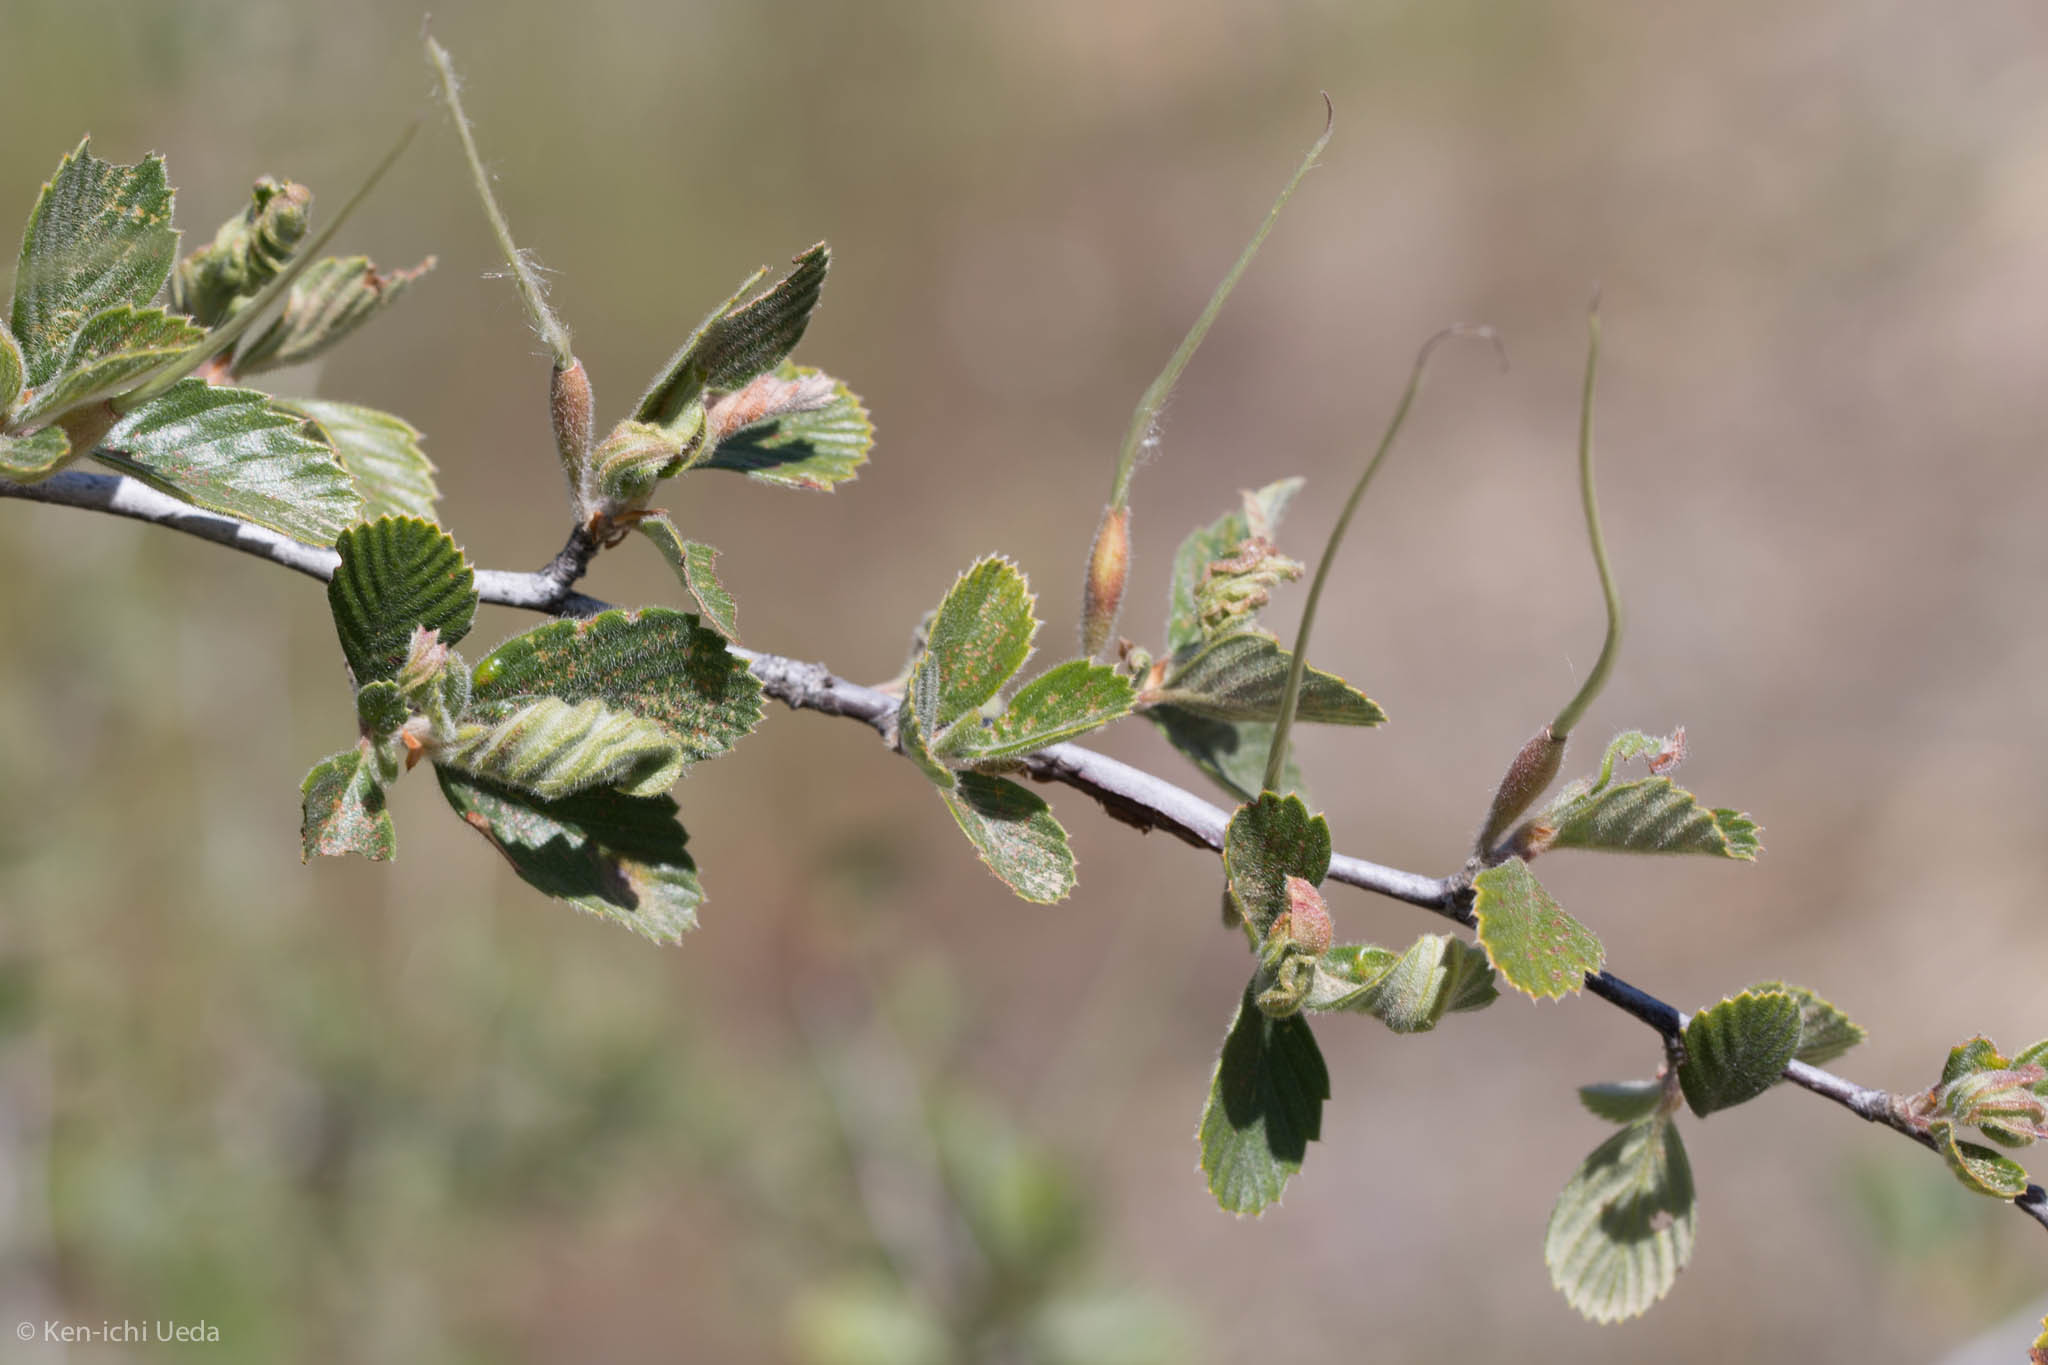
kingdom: Plantae
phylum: Tracheophyta
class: Magnoliopsida
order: Rosales
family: Rosaceae
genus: Cercocarpus
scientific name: Cercocarpus betuloides
